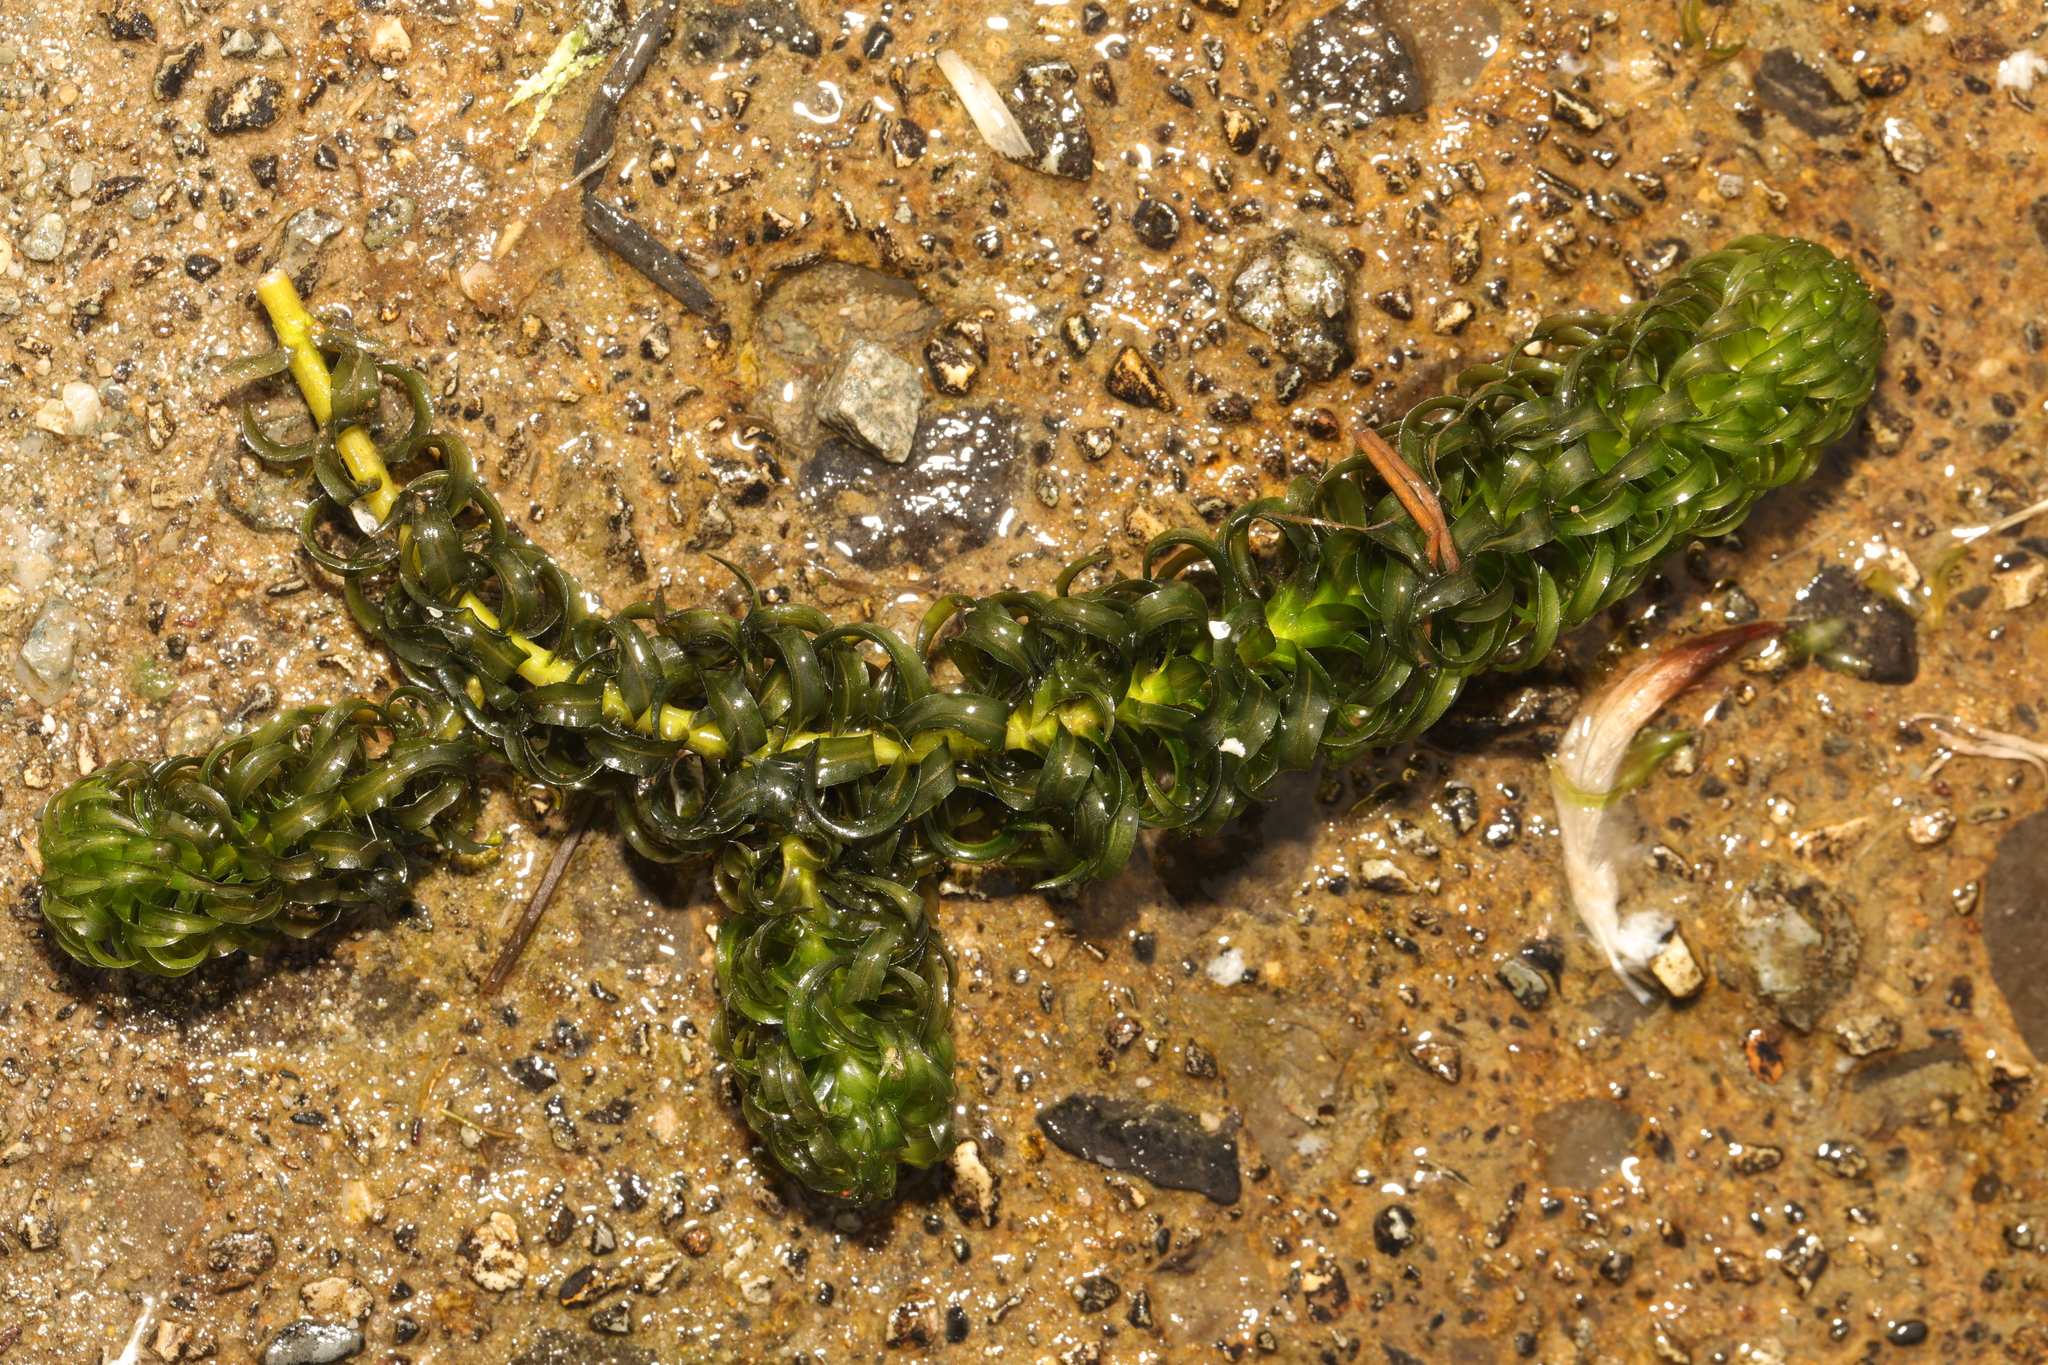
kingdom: Plantae
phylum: Tracheophyta
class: Liliopsida
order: Alismatales
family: Hydrocharitaceae
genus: Lagarosiphon
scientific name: Lagarosiphon major
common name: Curly waterweed
